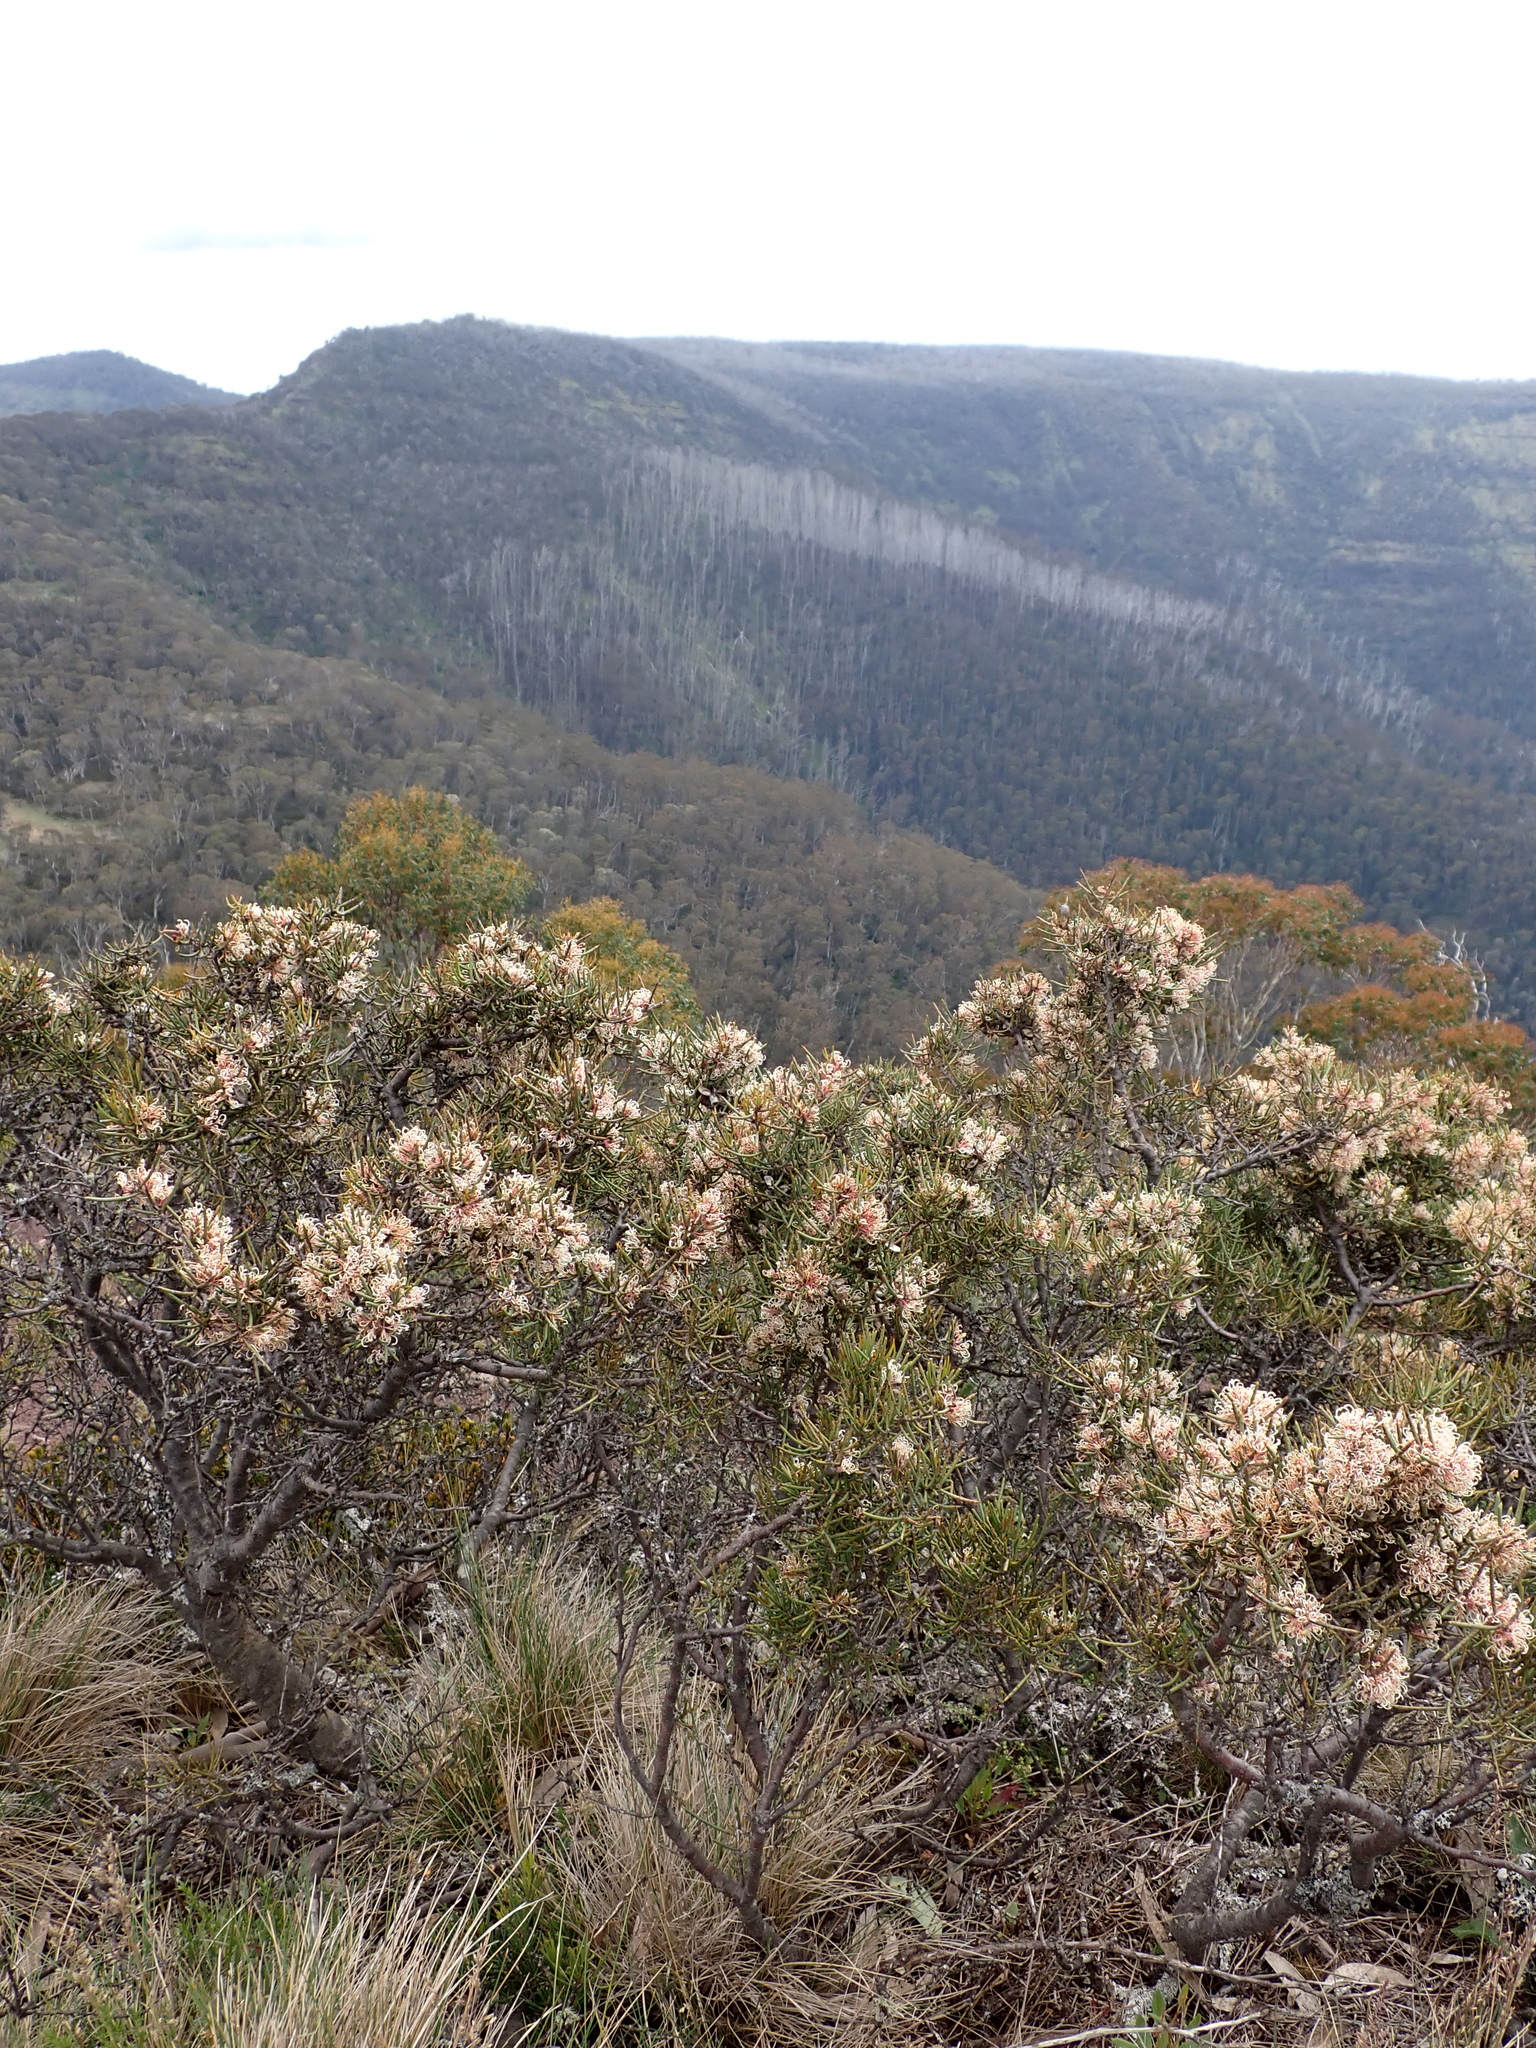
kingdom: Plantae
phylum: Tracheophyta
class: Magnoliopsida
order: Proteales
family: Proteaceae
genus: Hakea
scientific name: Hakea microcarpa
